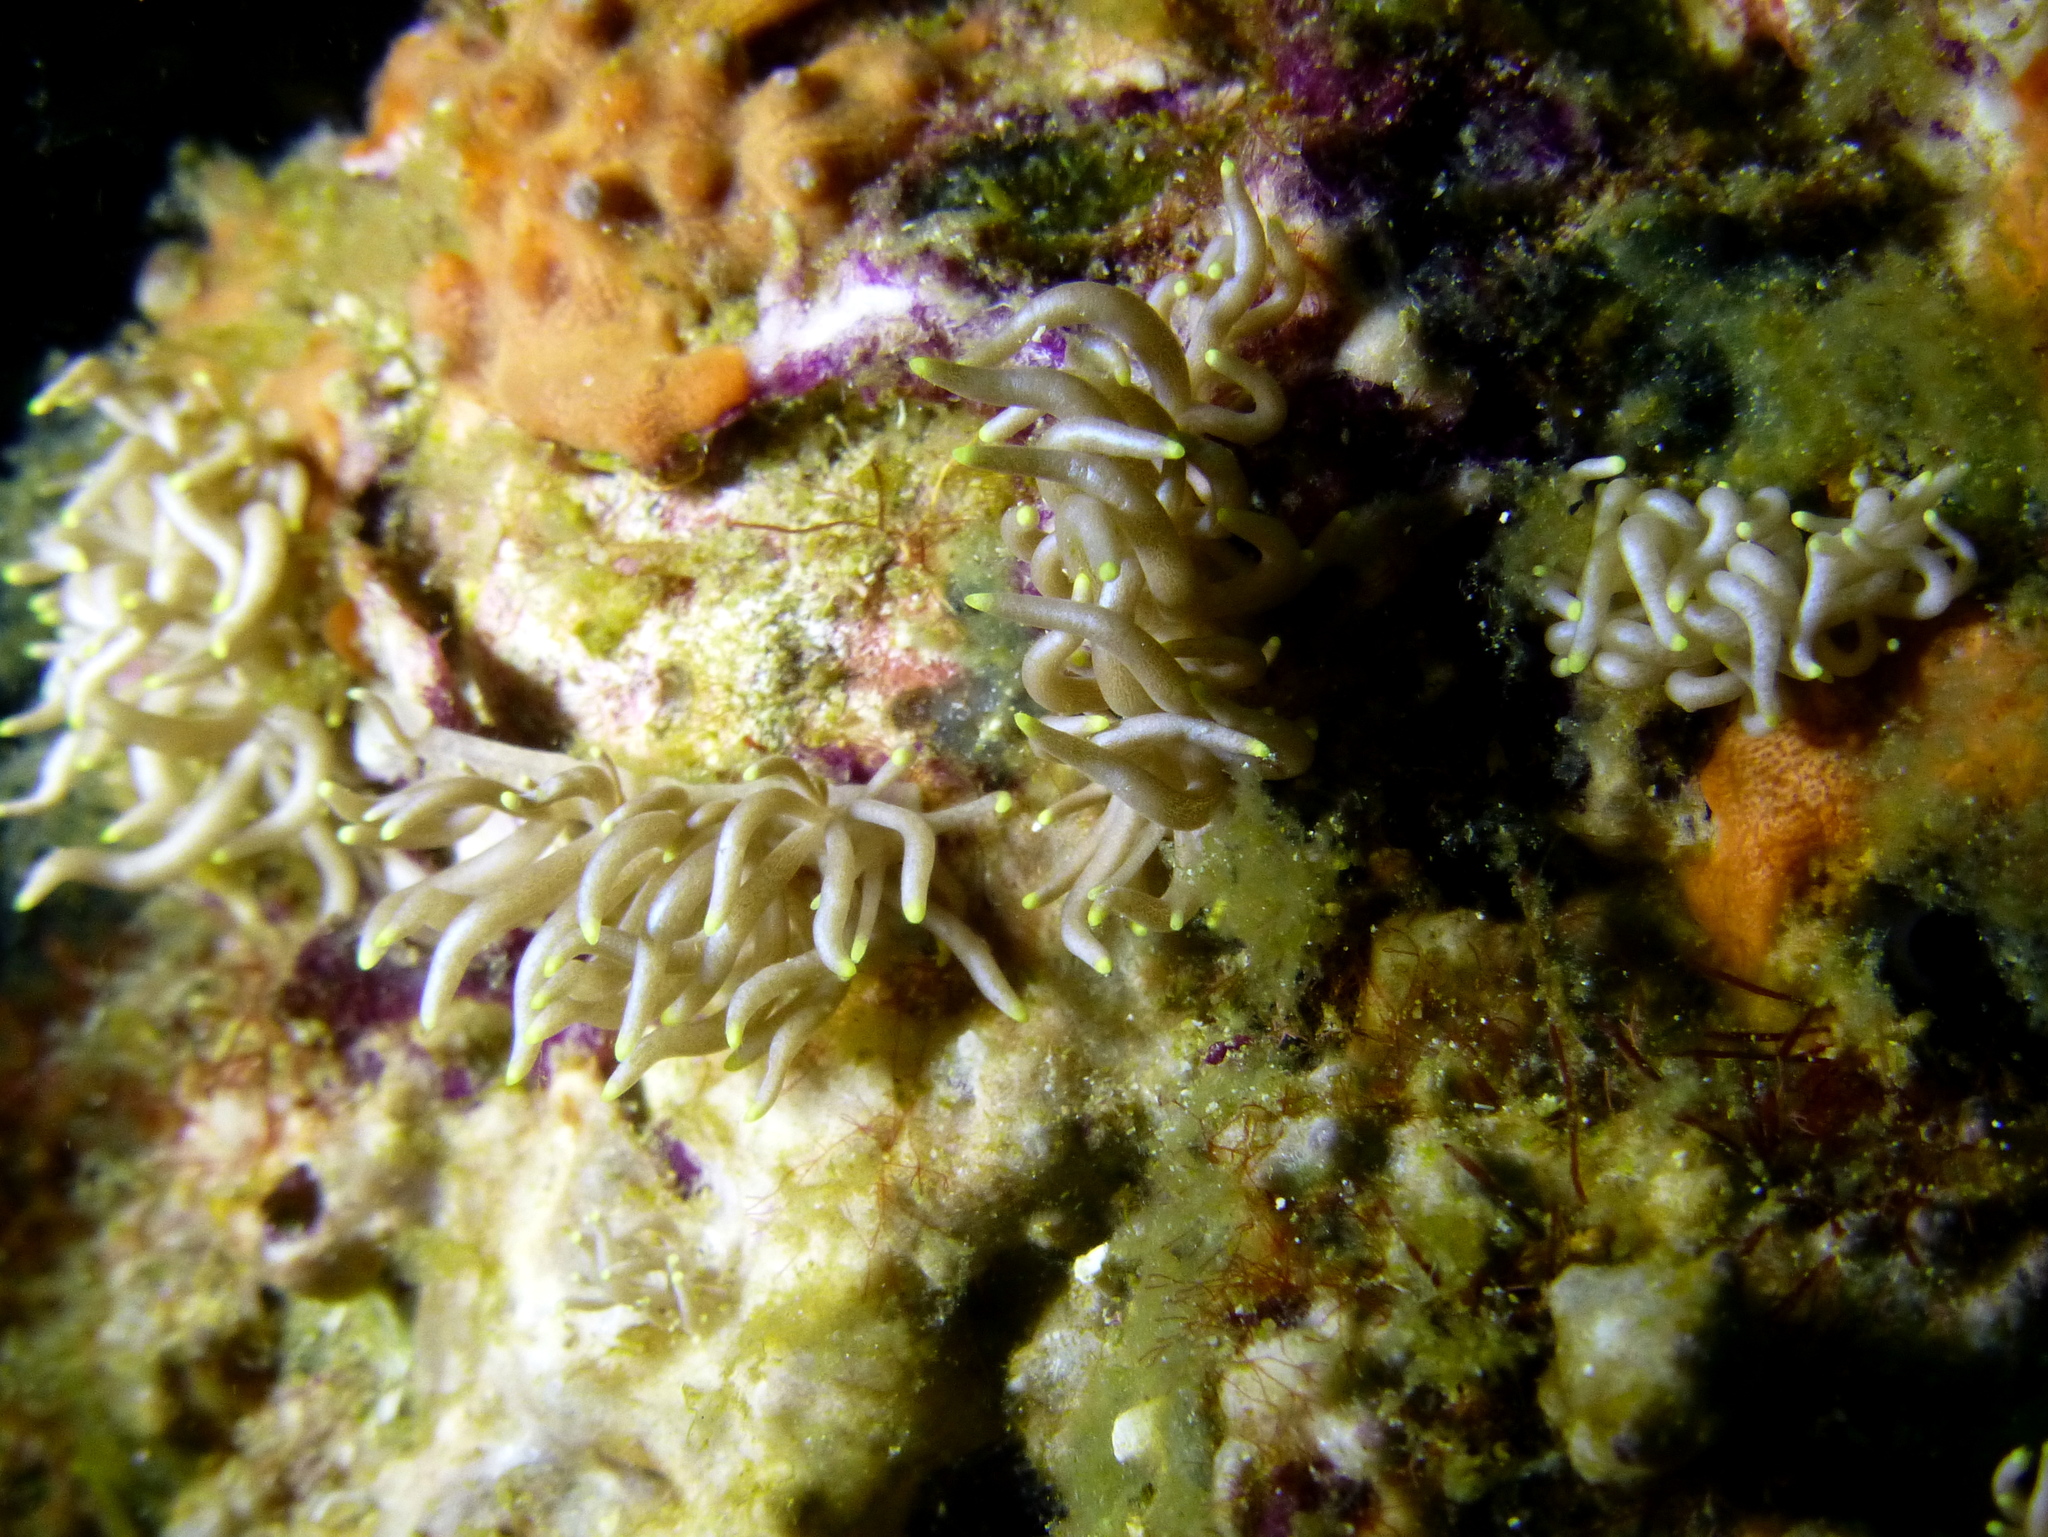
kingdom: Animalia
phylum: Mollusca
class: Gastropoda
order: Nudibranchia
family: Myrrhinidae
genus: Phyllodesmium
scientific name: Phyllodesmium briareum
